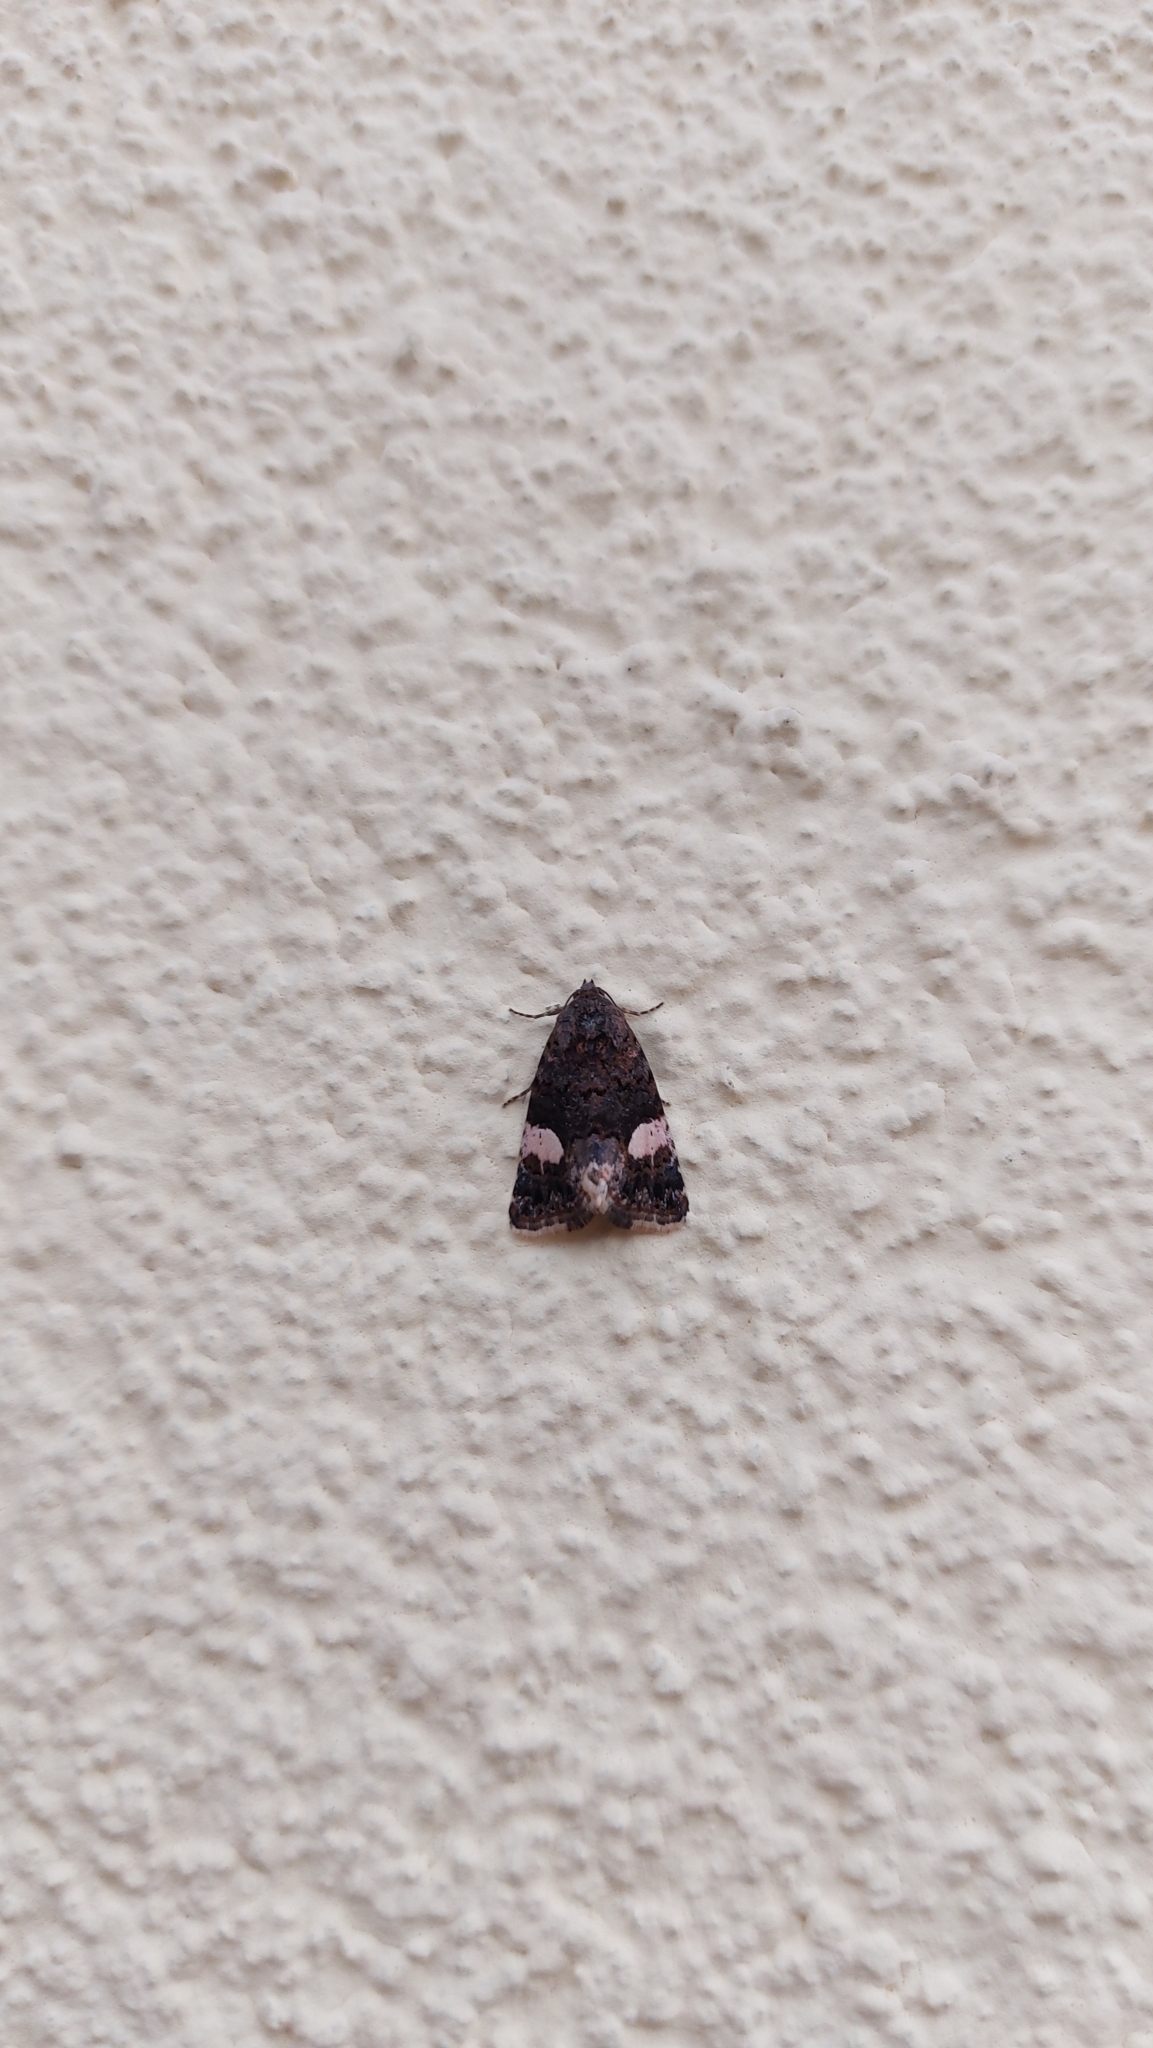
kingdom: Animalia
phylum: Arthropoda
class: Insecta
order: Lepidoptera
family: Erebidae
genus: Tyta
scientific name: Tyta luctuosa
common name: Four-spotted
